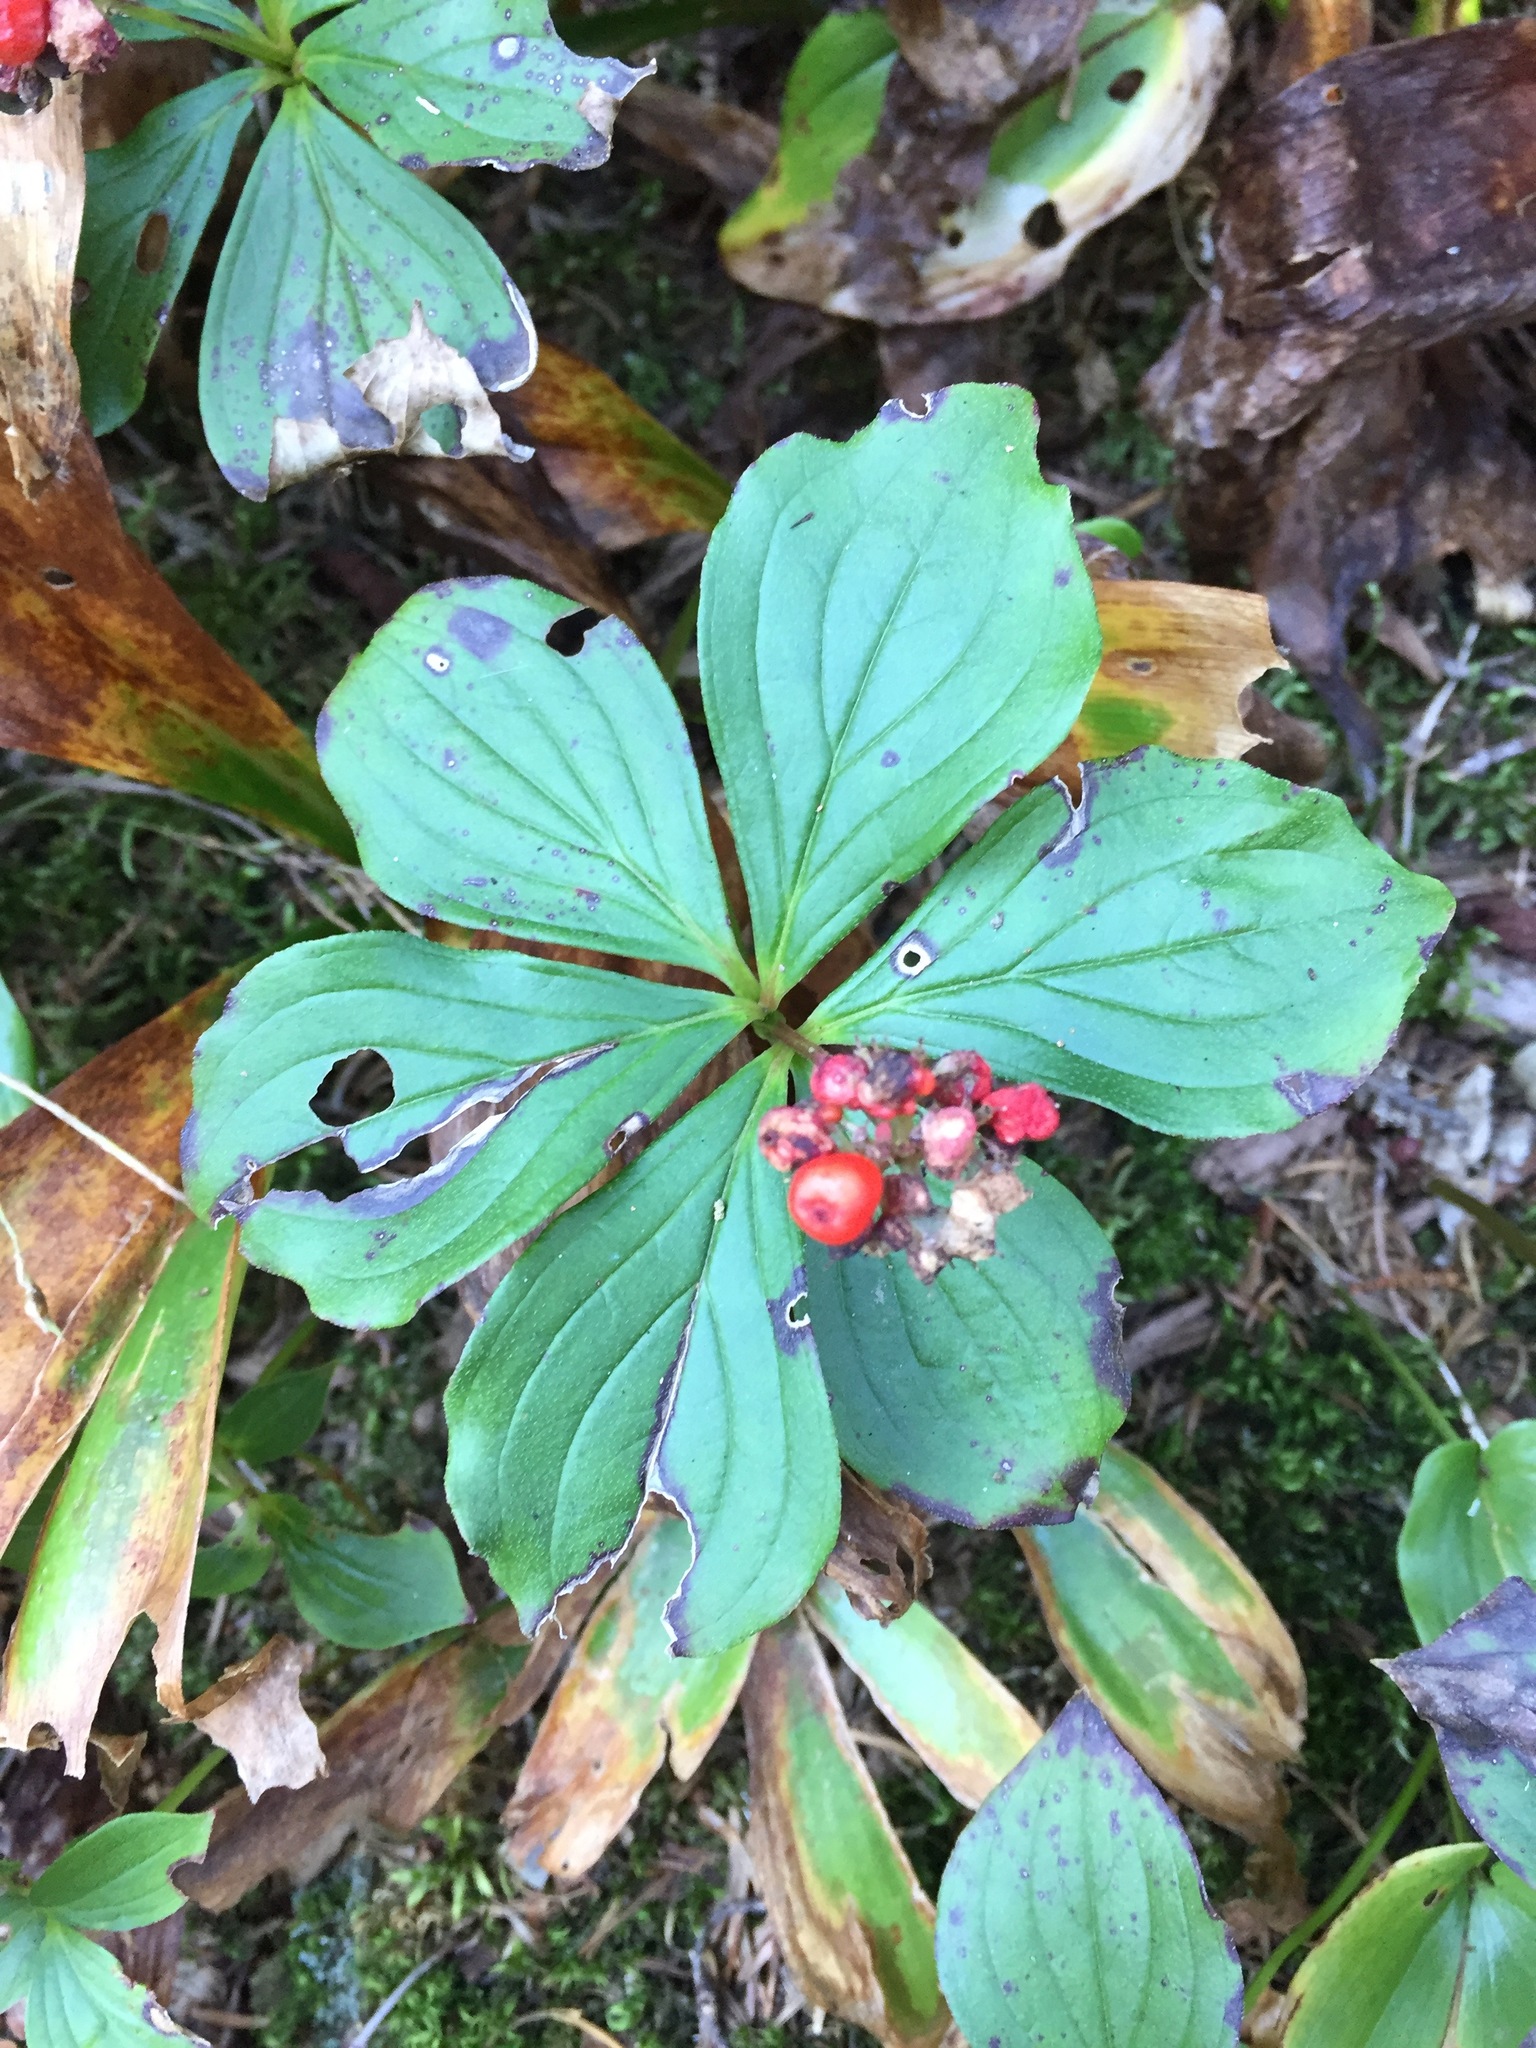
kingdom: Plantae
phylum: Tracheophyta
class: Magnoliopsida
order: Cornales
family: Cornaceae
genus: Cornus
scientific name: Cornus canadensis
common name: Creeping dogwood
